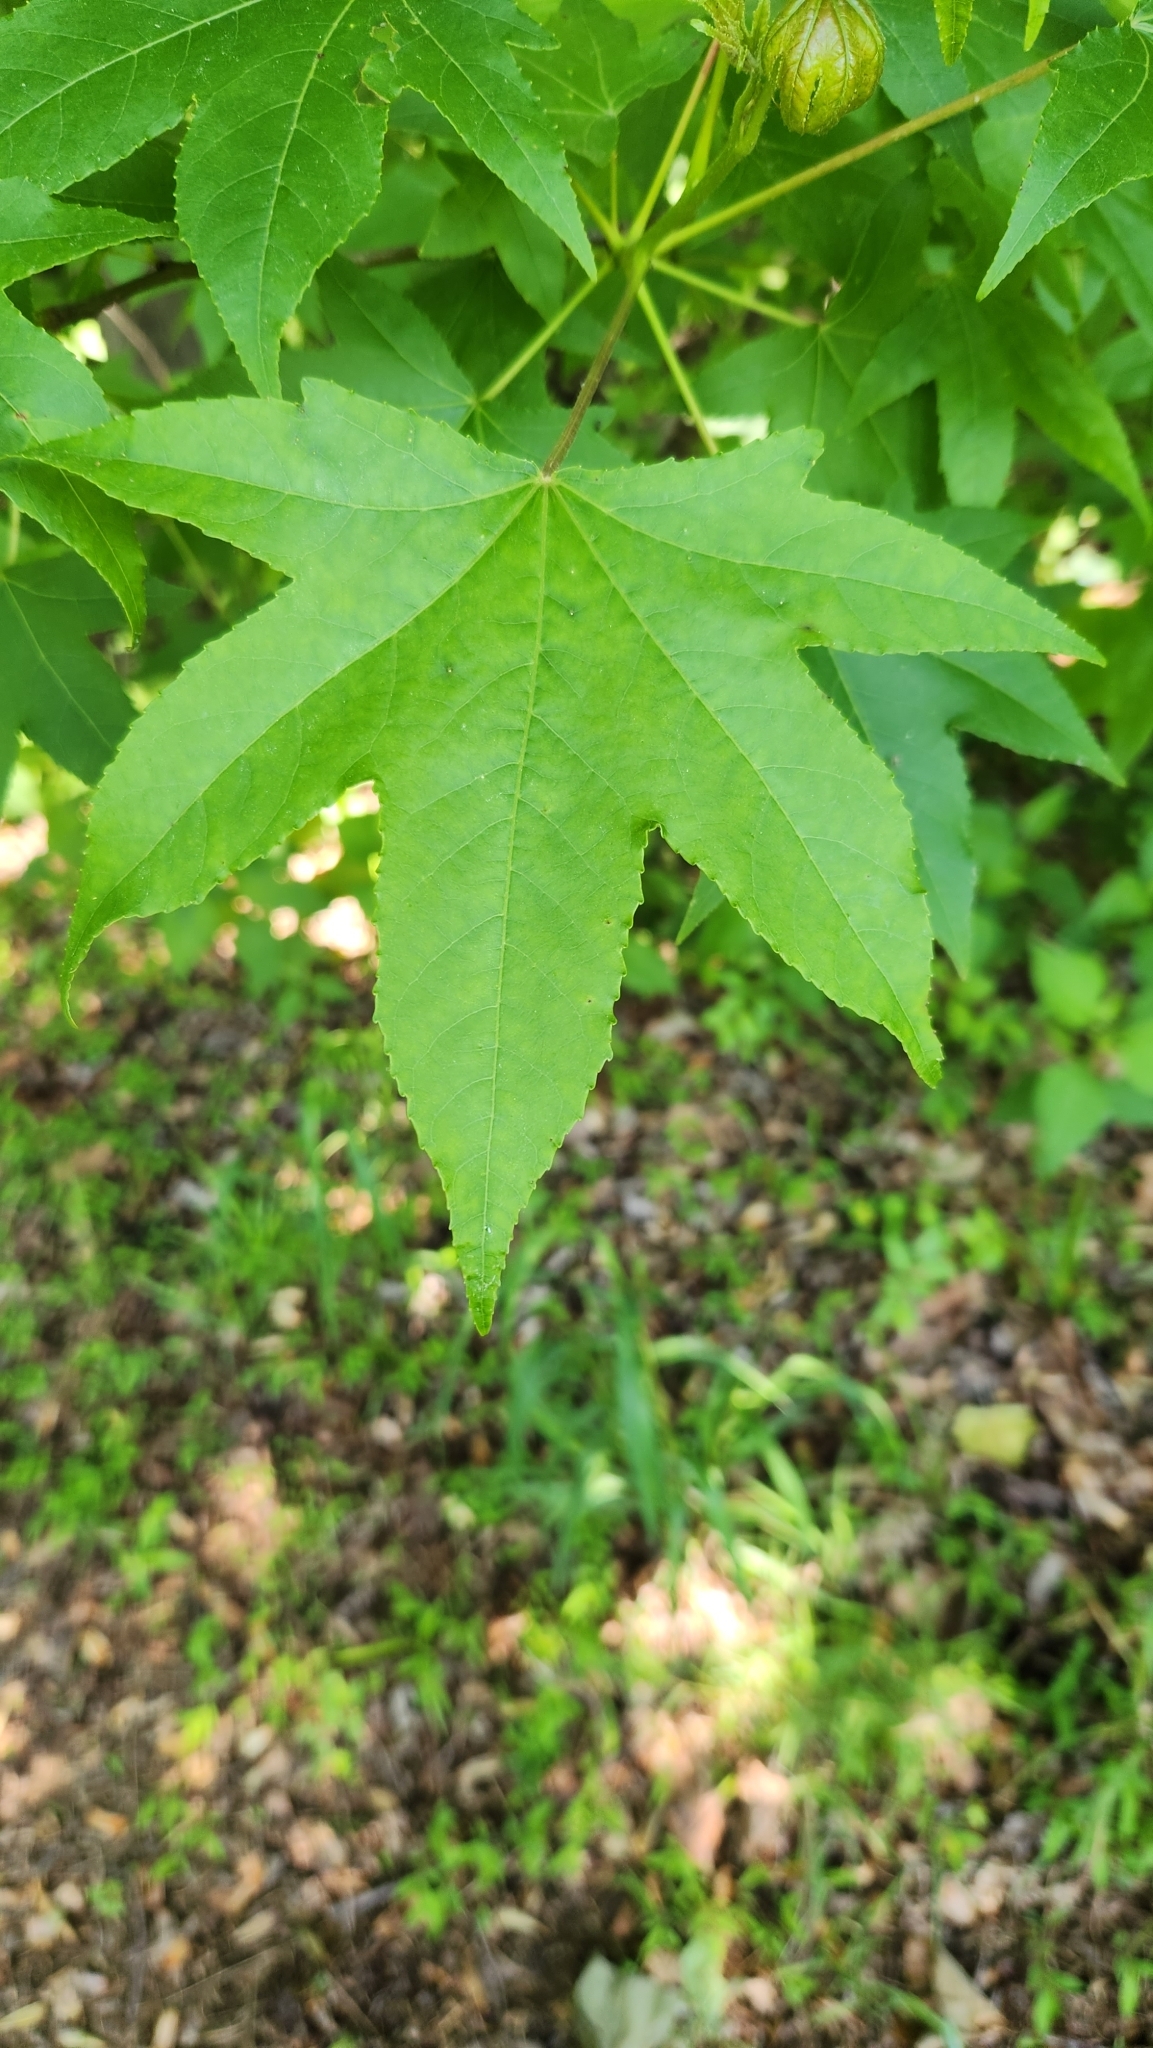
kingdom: Plantae
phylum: Tracheophyta
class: Magnoliopsida
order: Saxifragales
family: Altingiaceae
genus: Liquidambar
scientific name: Liquidambar styraciflua
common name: Sweet gum
